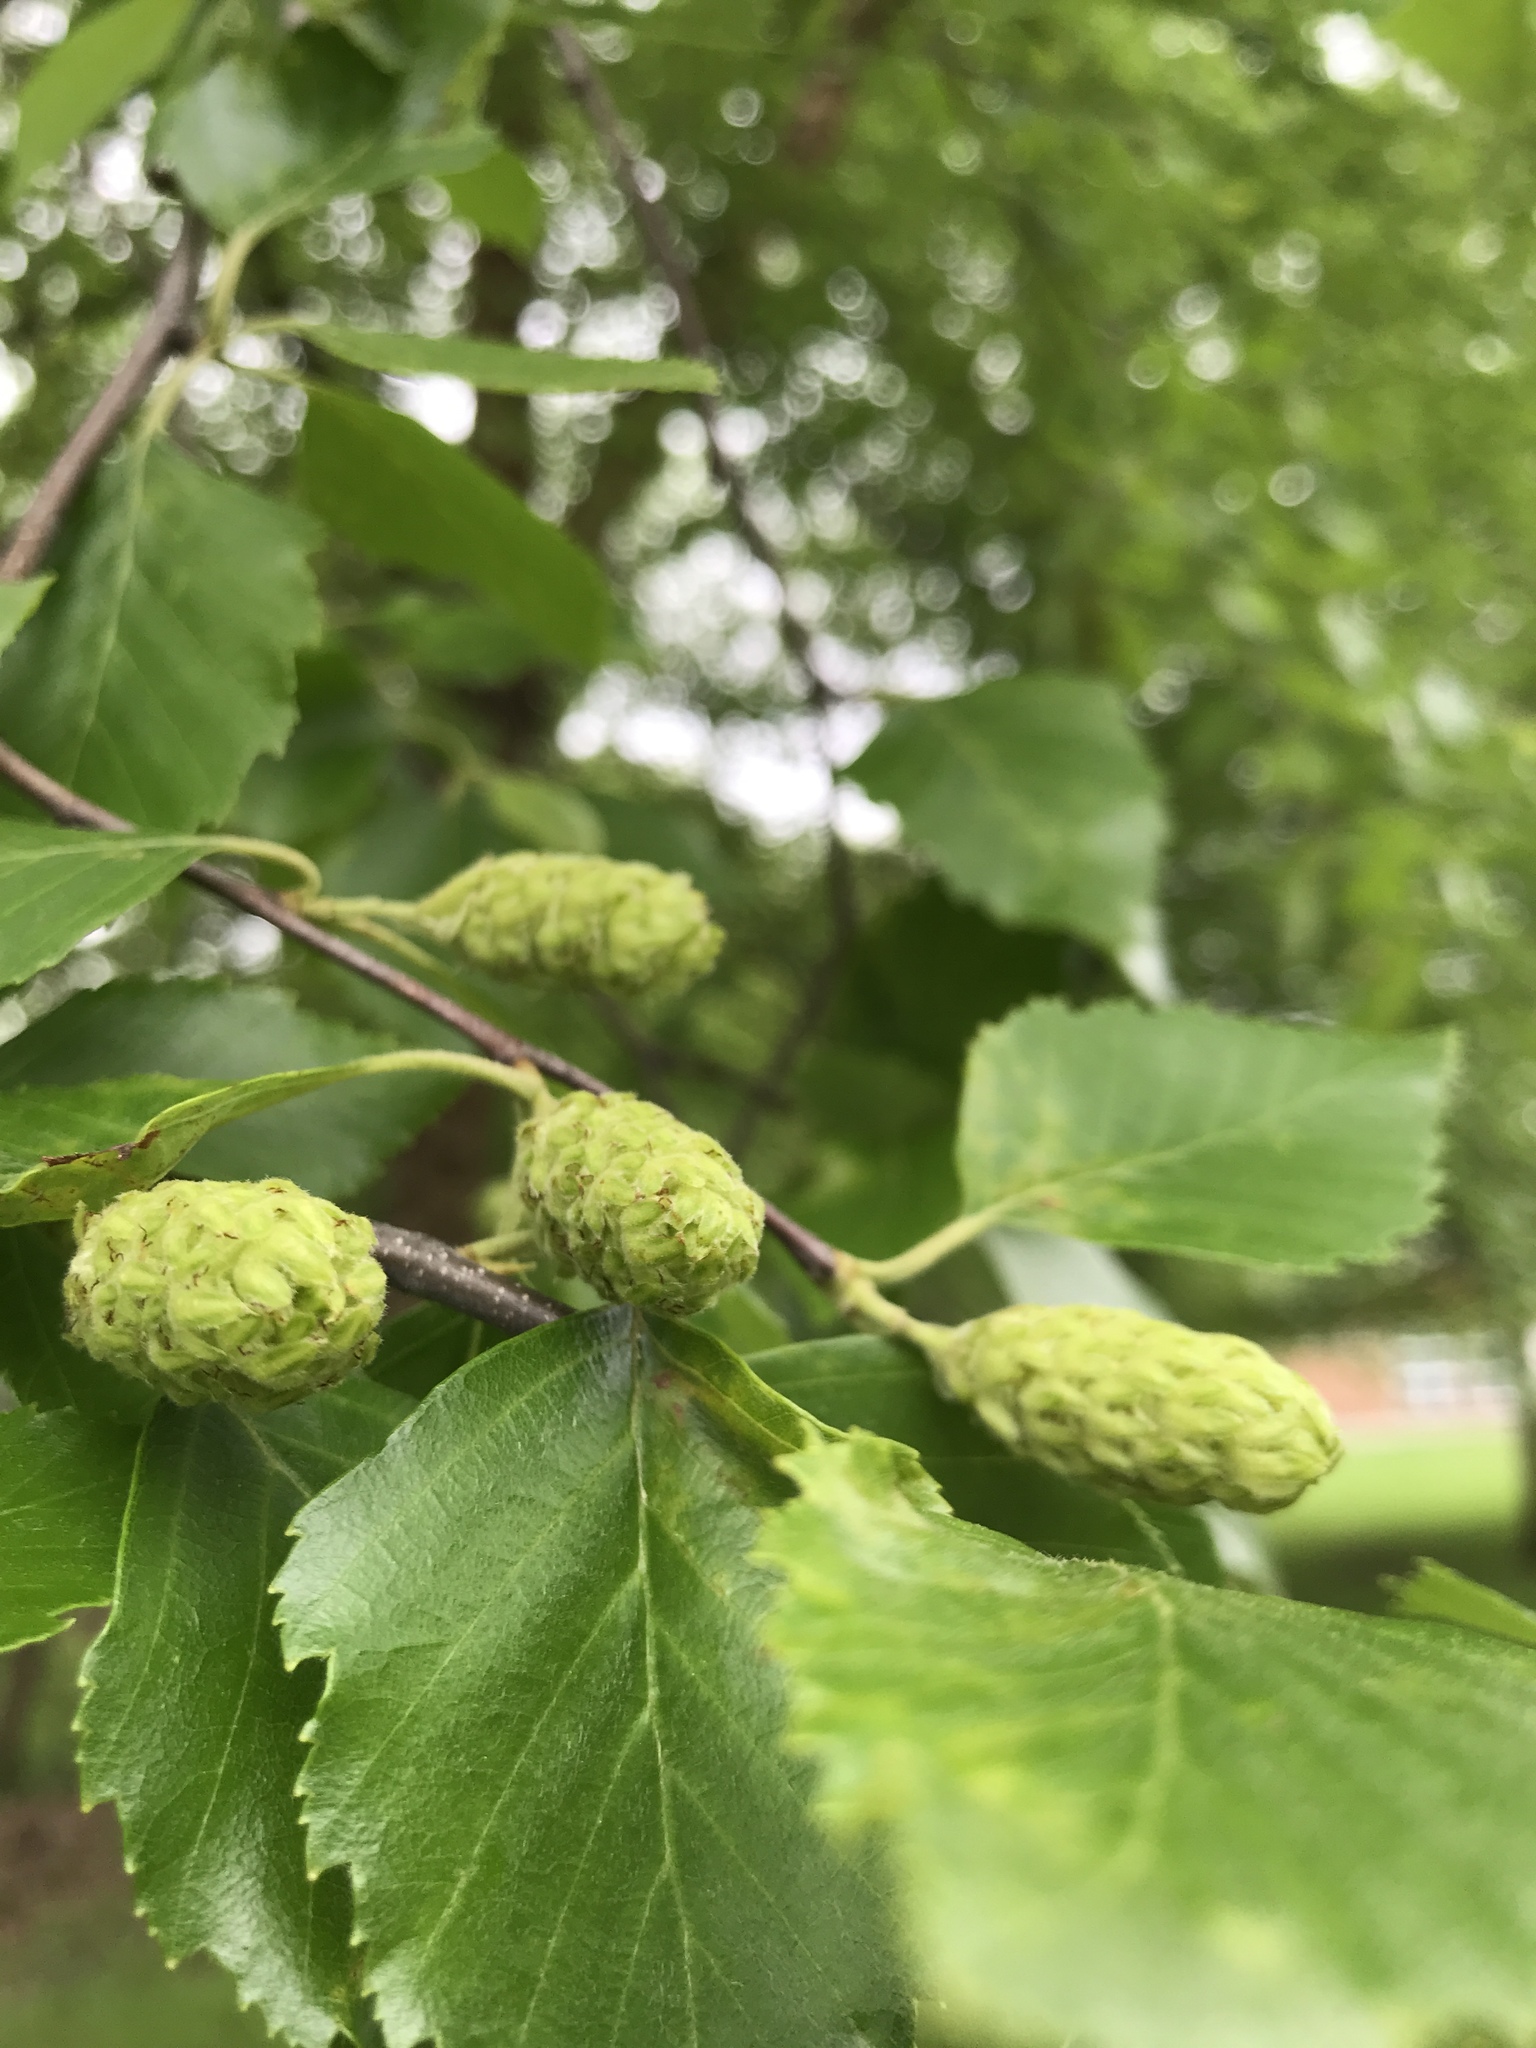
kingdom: Plantae
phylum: Tracheophyta
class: Magnoliopsida
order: Fagales
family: Betulaceae
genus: Betula
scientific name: Betula nigra
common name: Black birch
